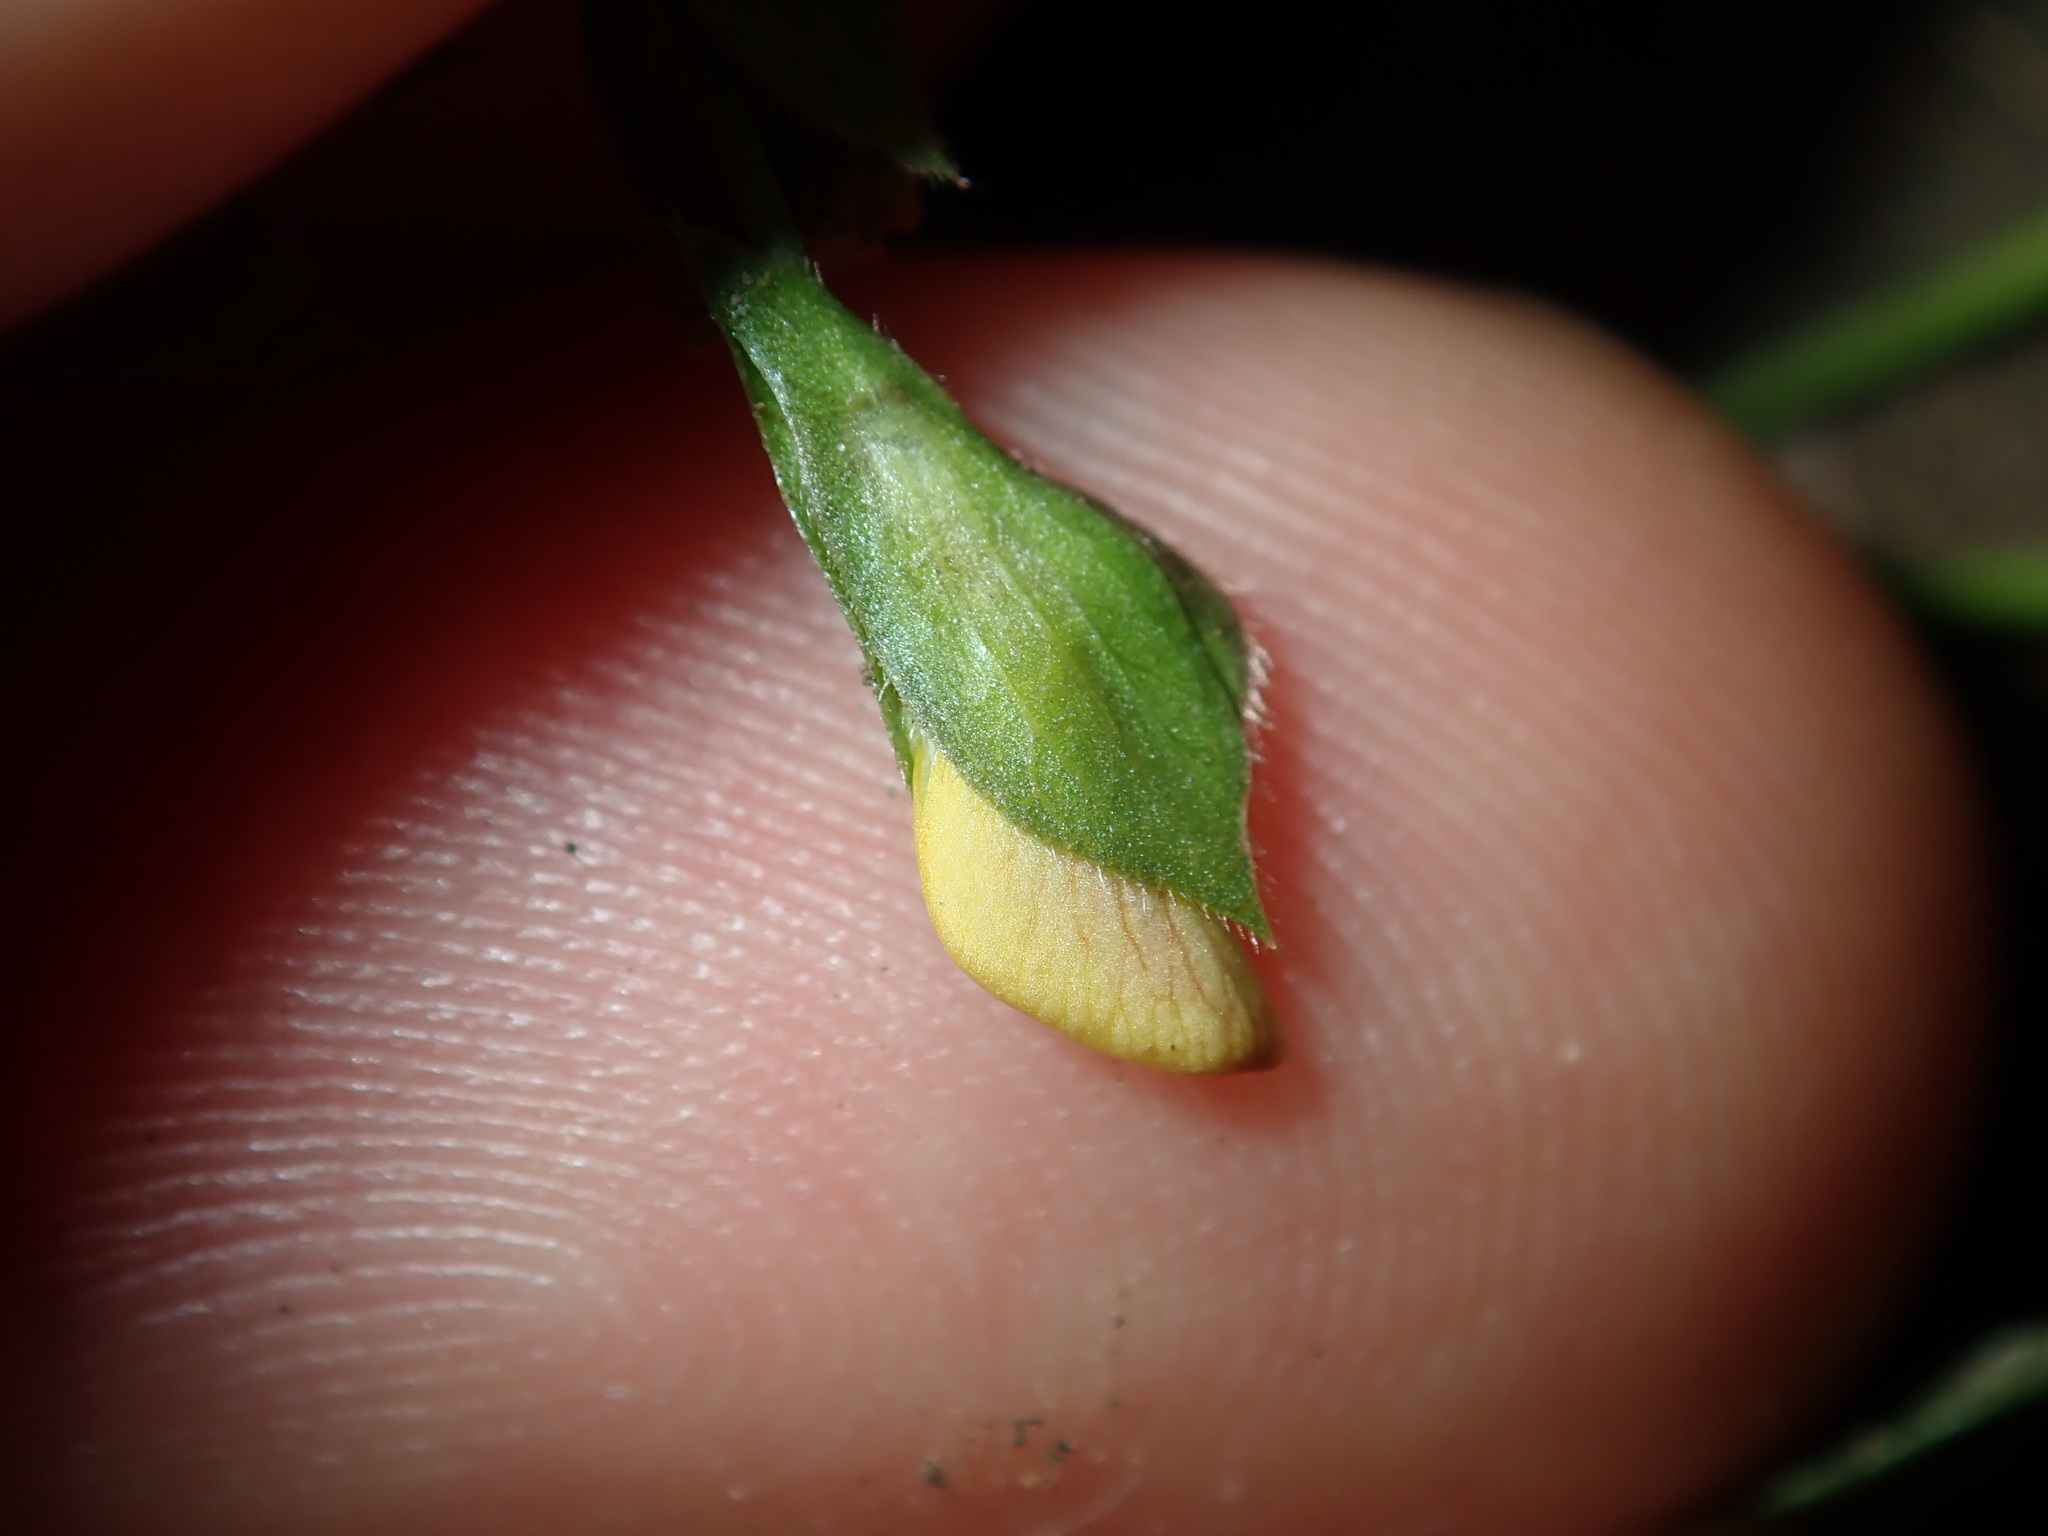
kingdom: Plantae
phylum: Tracheophyta
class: Magnoliopsida
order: Fabales
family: Fabaceae
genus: Zornia
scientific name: Zornia dyctiocarpa
